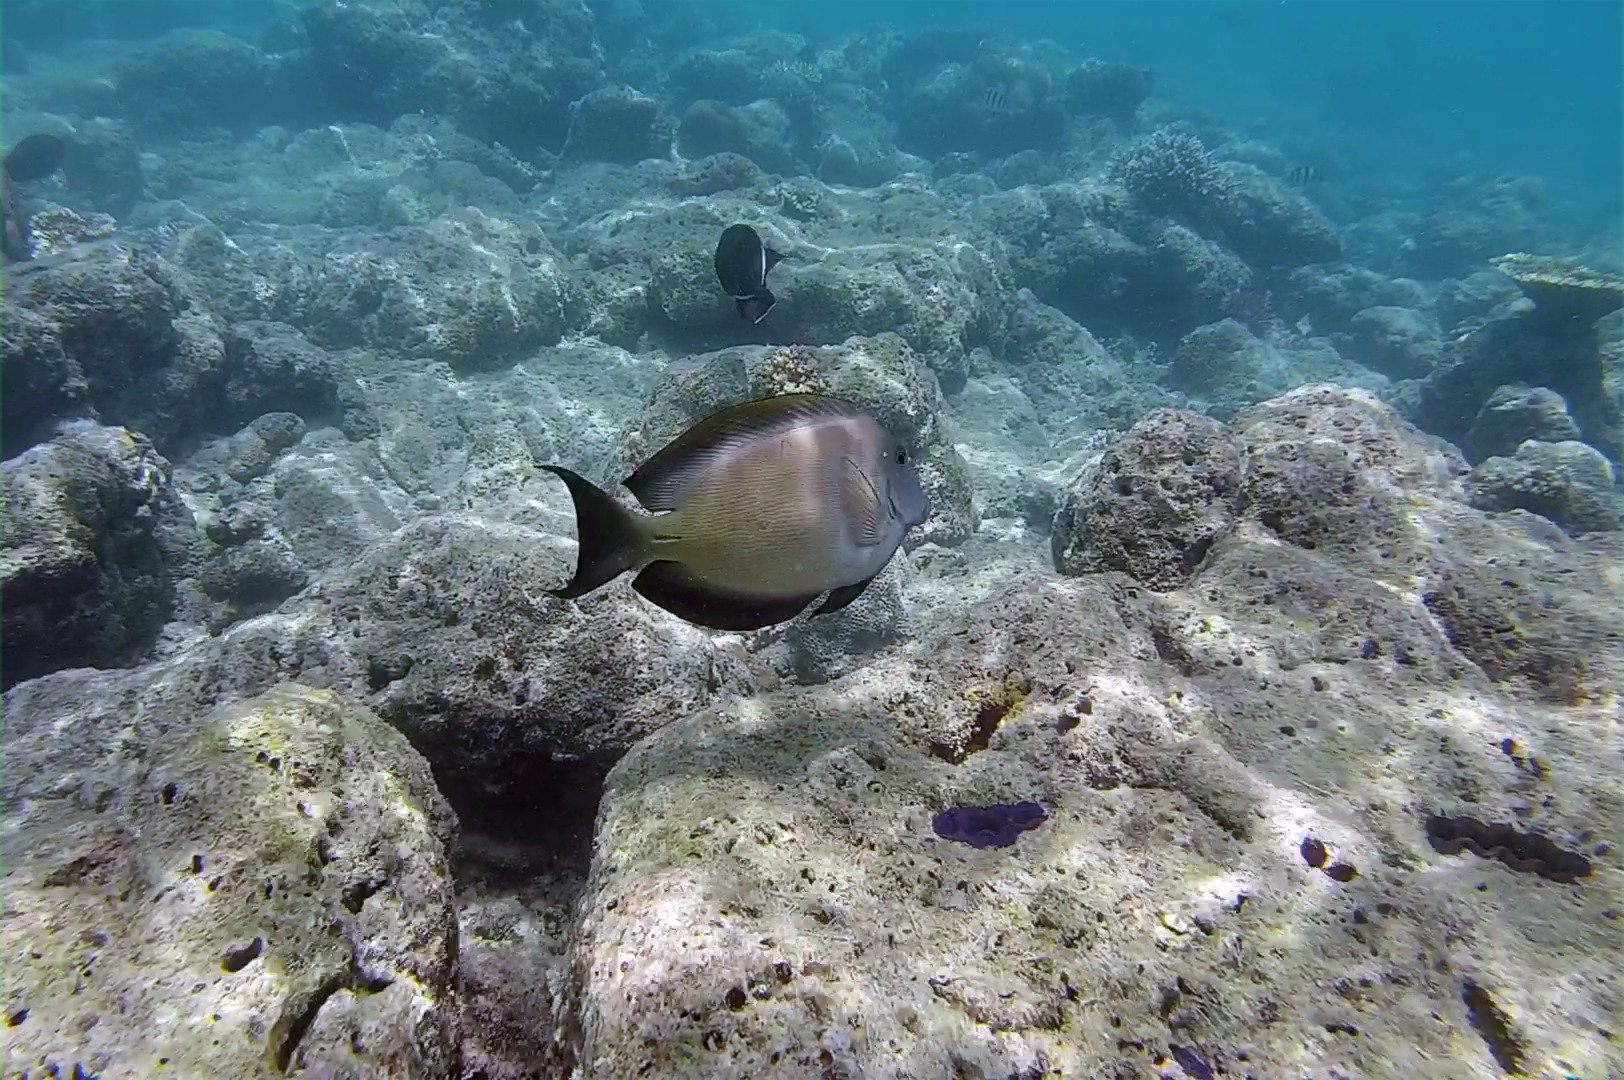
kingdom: Animalia
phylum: Chordata
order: Perciformes
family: Acanthuridae
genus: Ctenochaetus
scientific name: Ctenochaetus striatus
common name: Bristle-toothed surgeonfish
